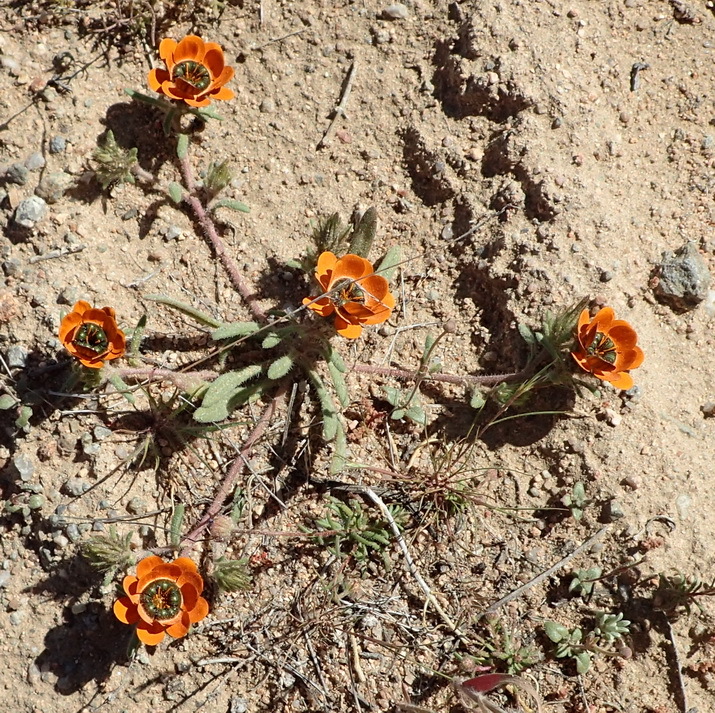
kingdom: Plantae
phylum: Tracheophyta
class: Magnoliopsida
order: Asterales
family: Asteraceae
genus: Gorteria
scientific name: Gorteria diffusa
